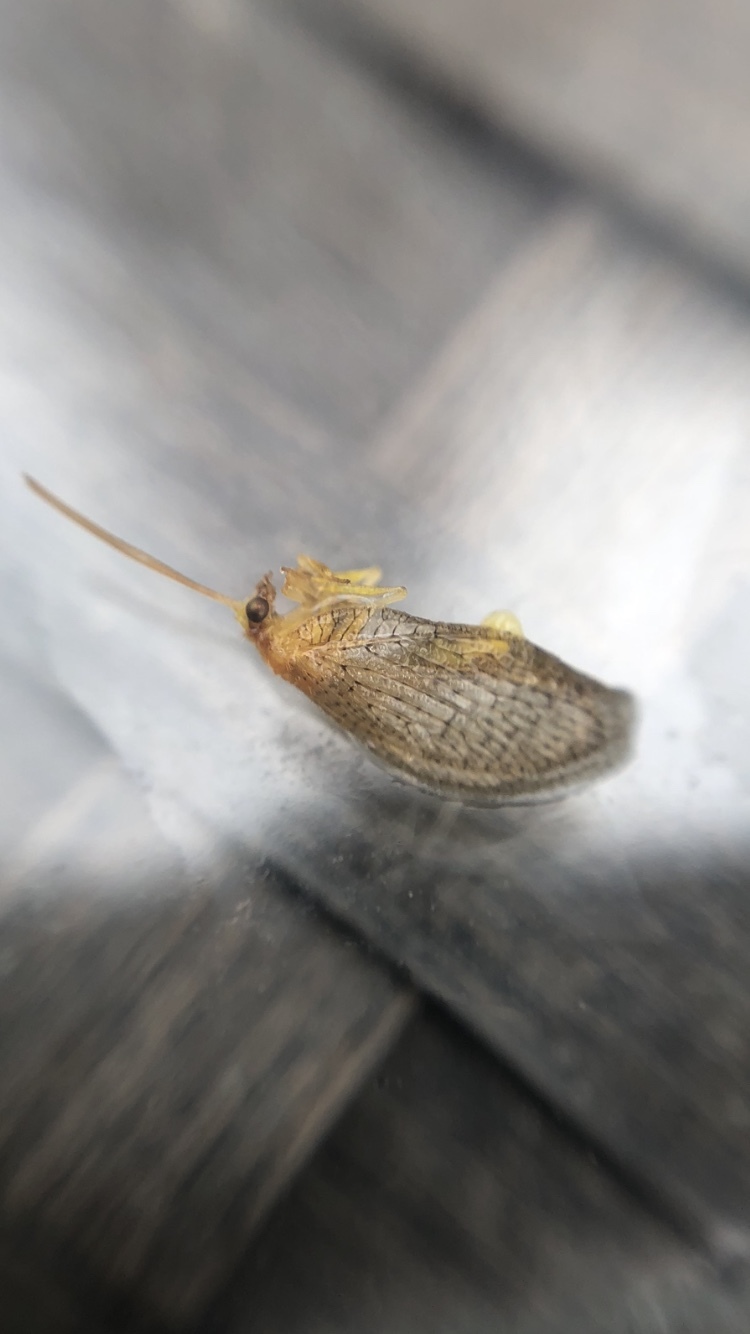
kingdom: Animalia
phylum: Arthropoda
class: Insecta
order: Neuroptera
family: Hemerobiidae
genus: Hemerobius
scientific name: Hemerobius micans
